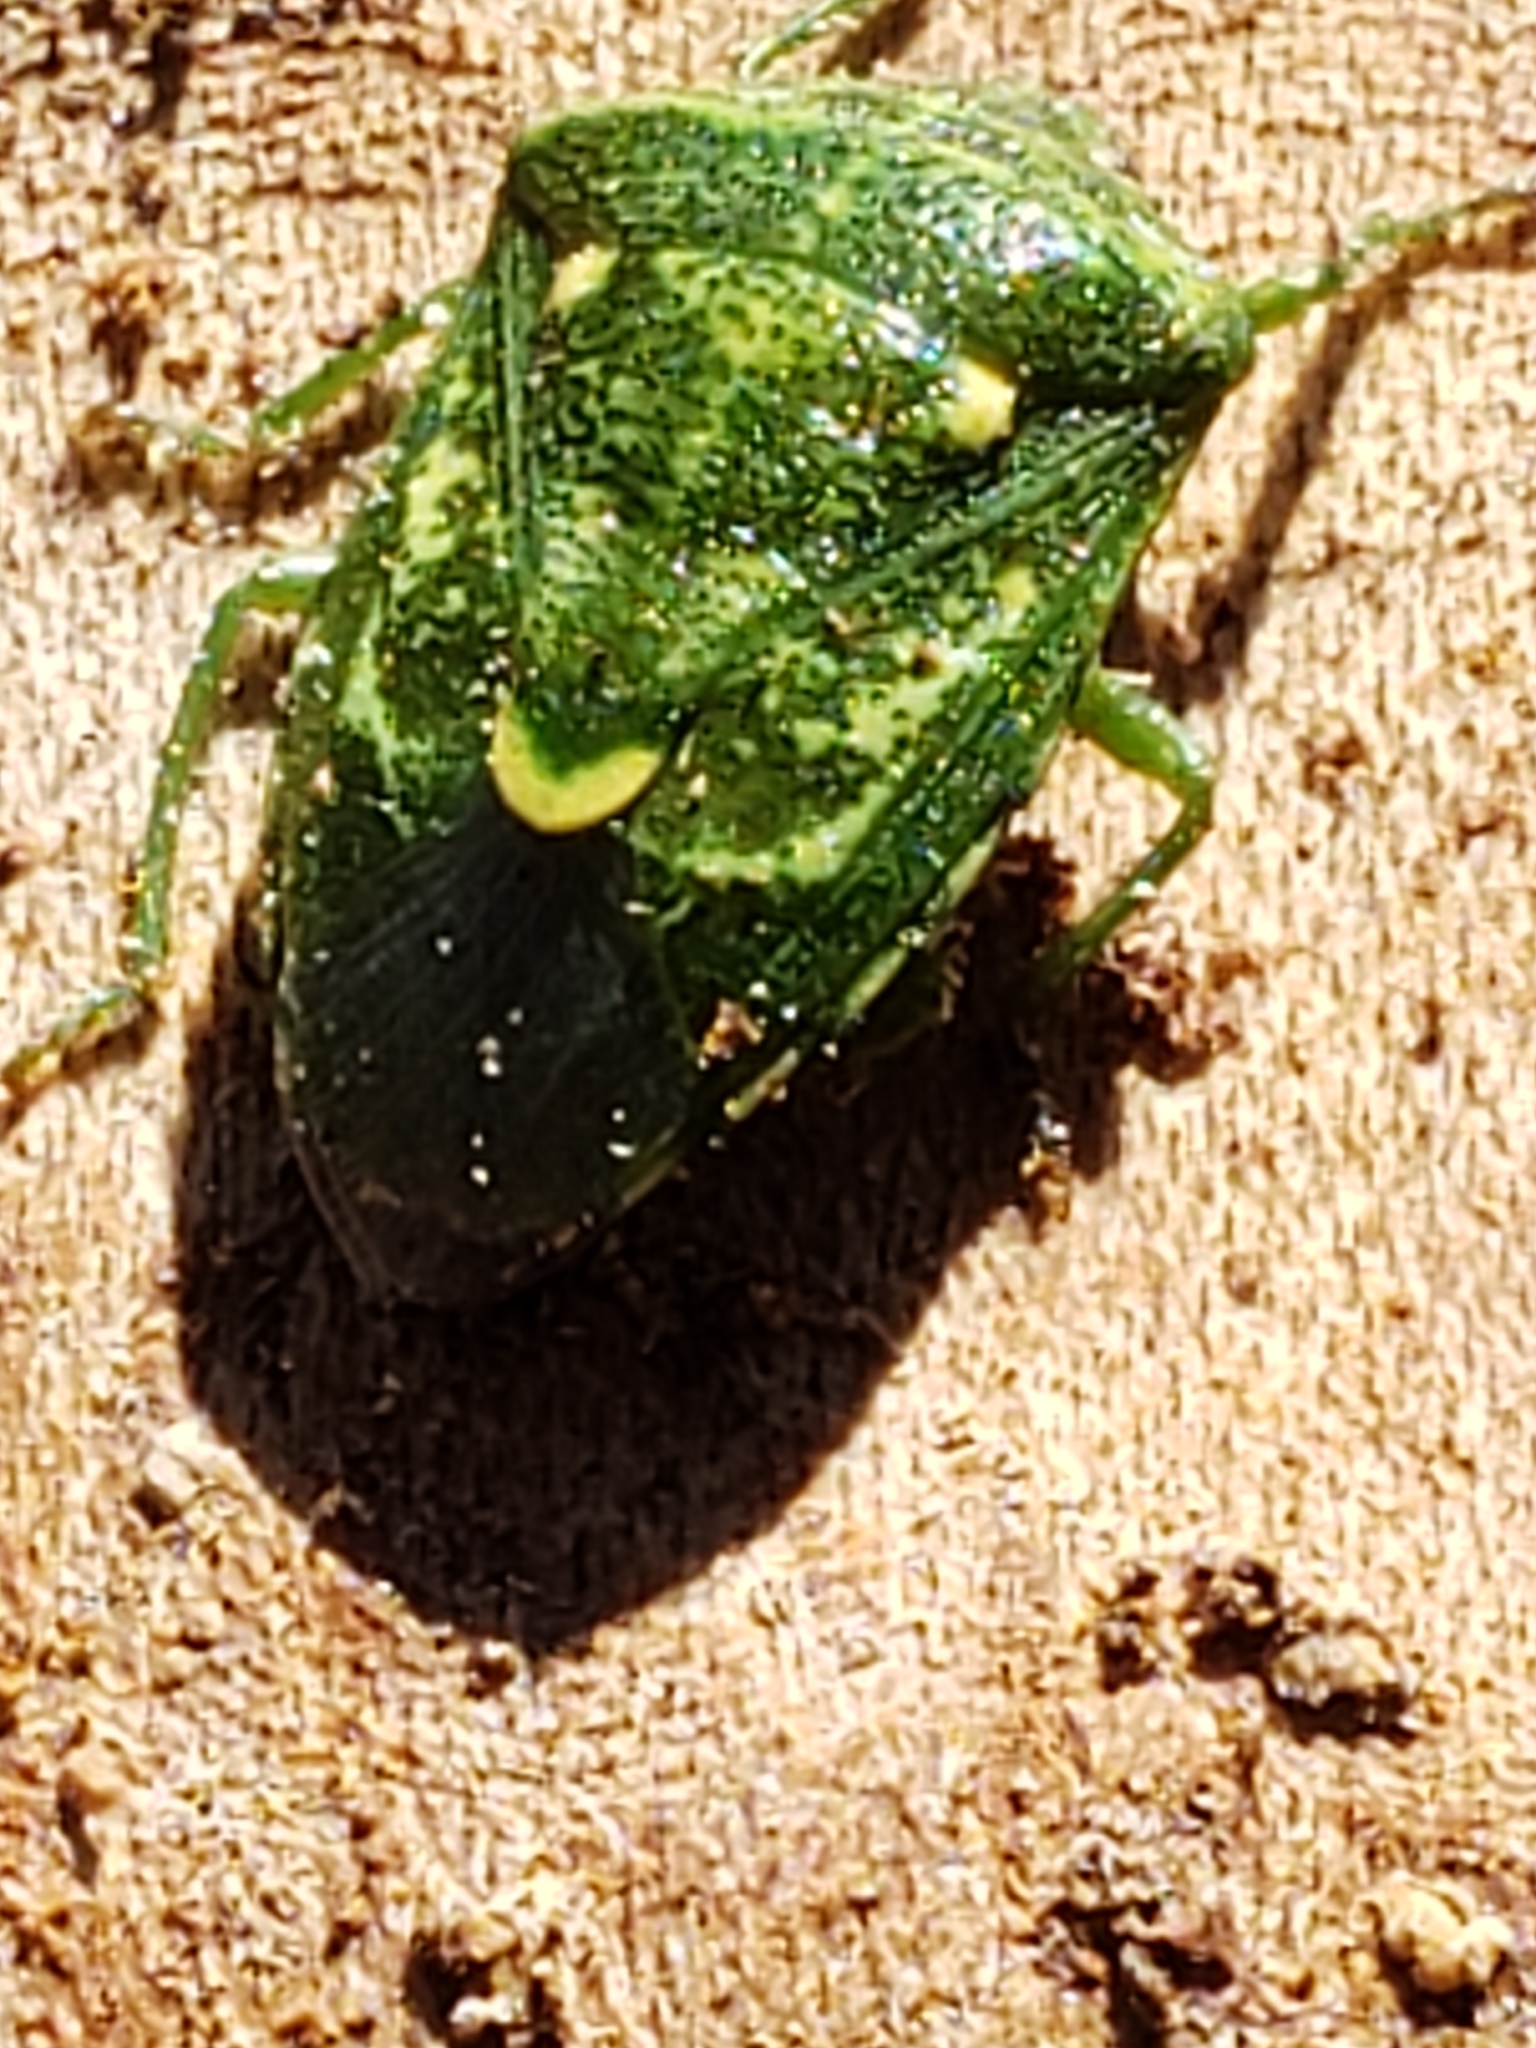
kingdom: Animalia
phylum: Arthropoda
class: Insecta
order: Hemiptera
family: Pentatomidae
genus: Banasa
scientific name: Banasa euchlora
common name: Cedar berry bug
